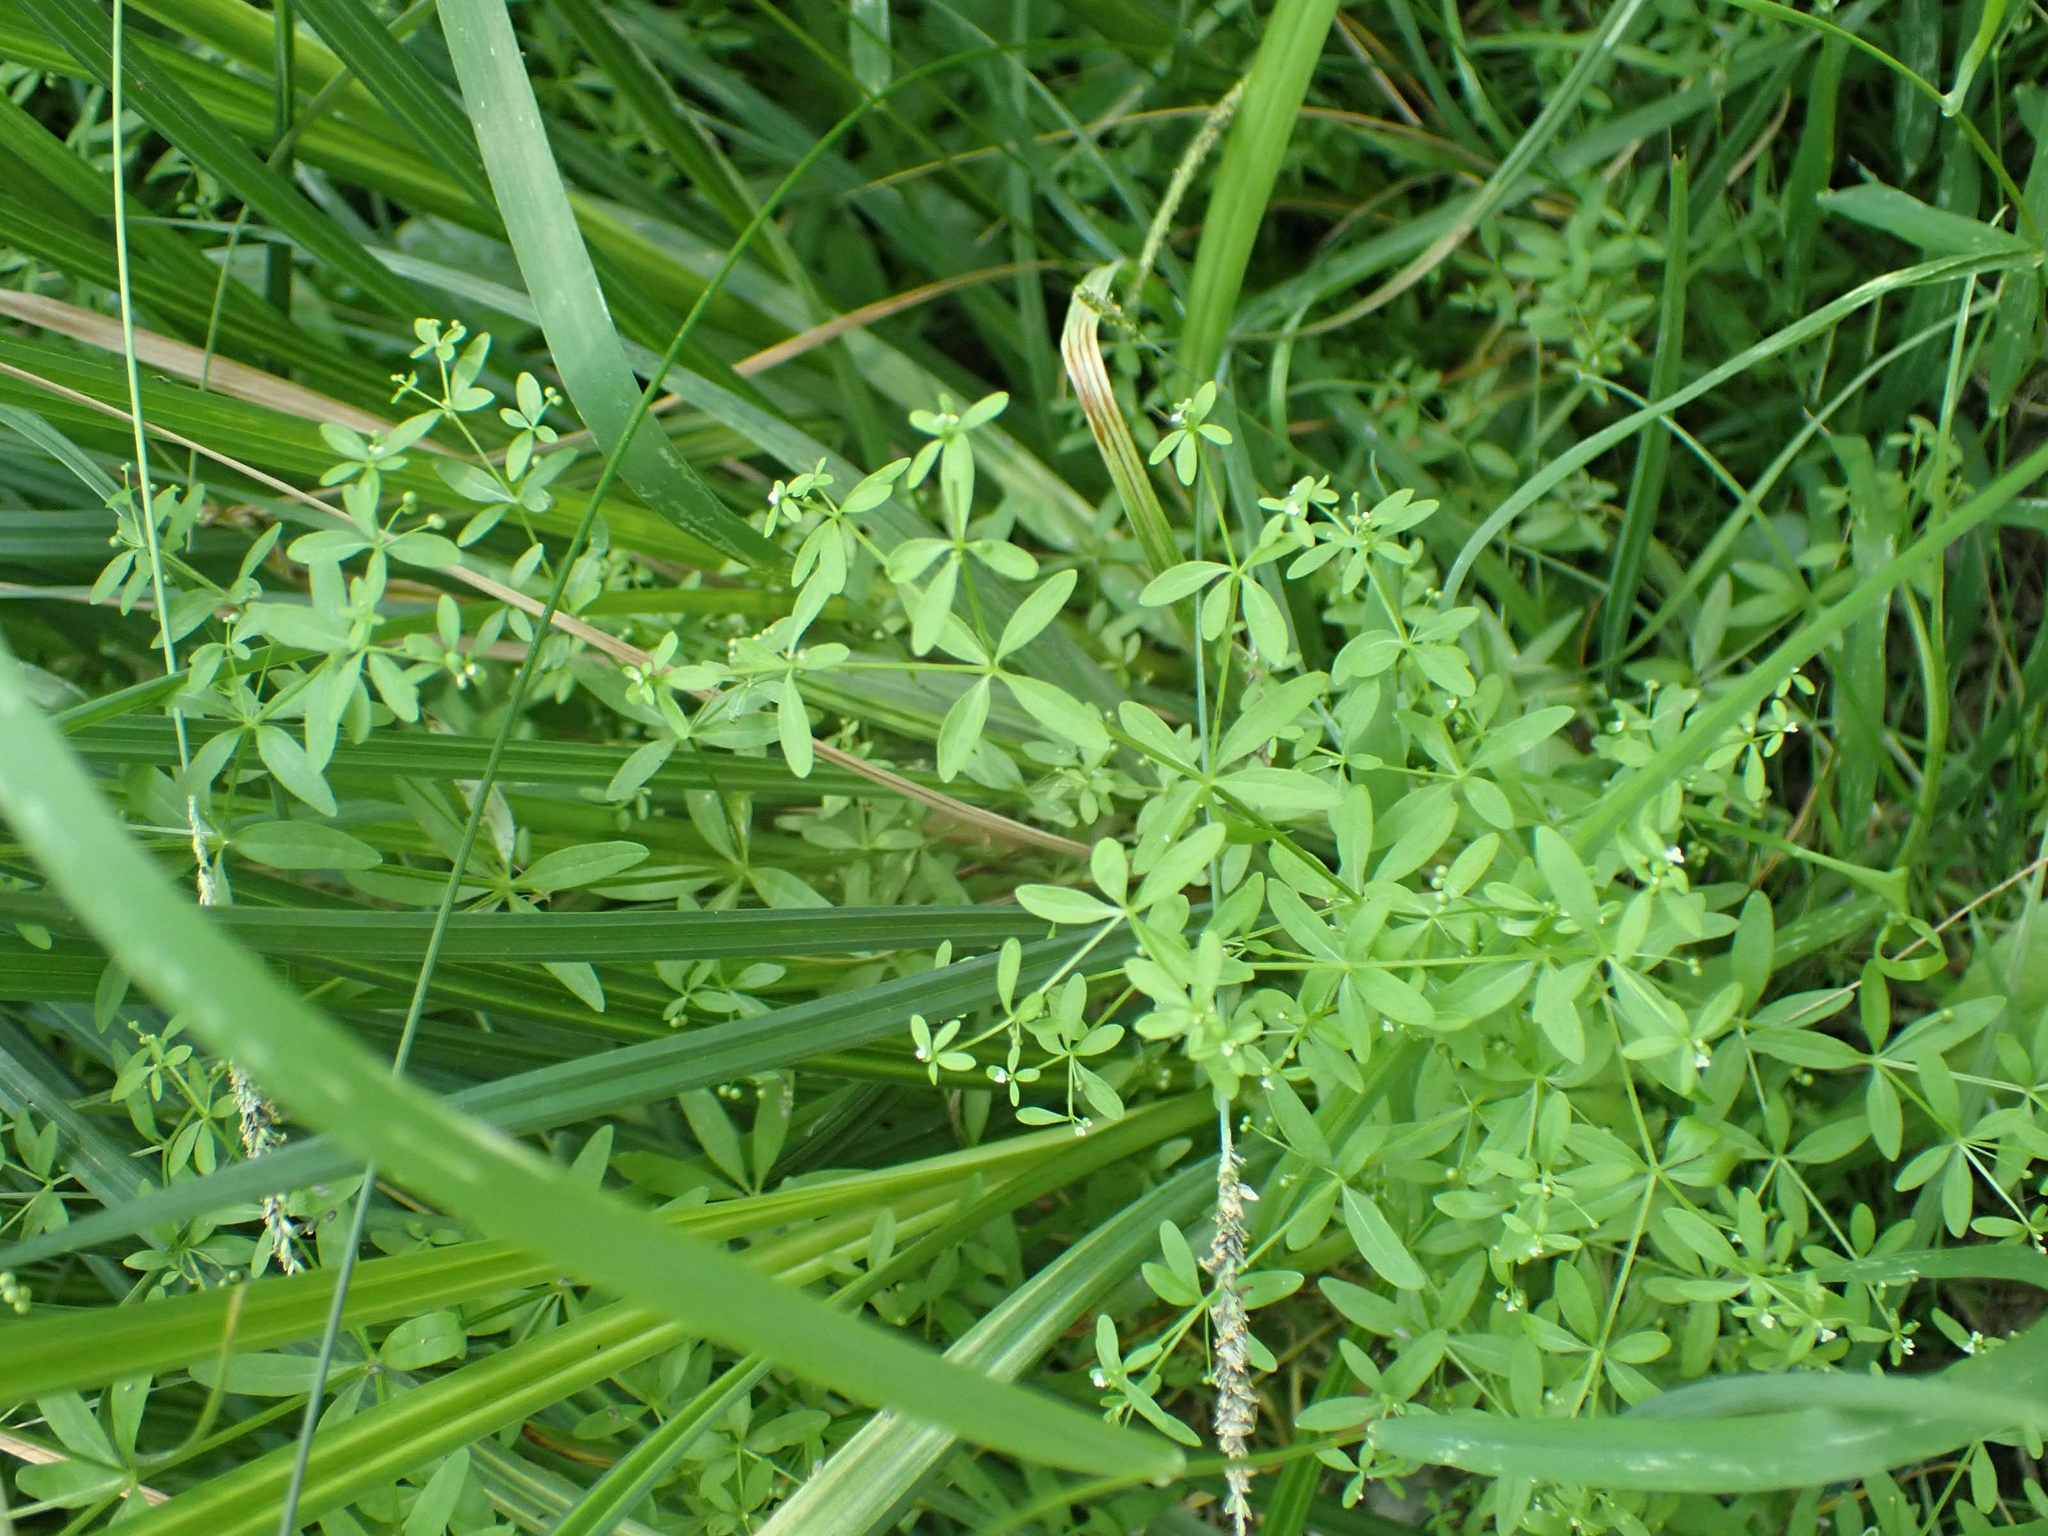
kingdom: Plantae
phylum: Tracheophyta
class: Magnoliopsida
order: Gentianales
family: Rubiaceae
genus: Galium
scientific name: Galium trifidum
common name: Small bedstraw
